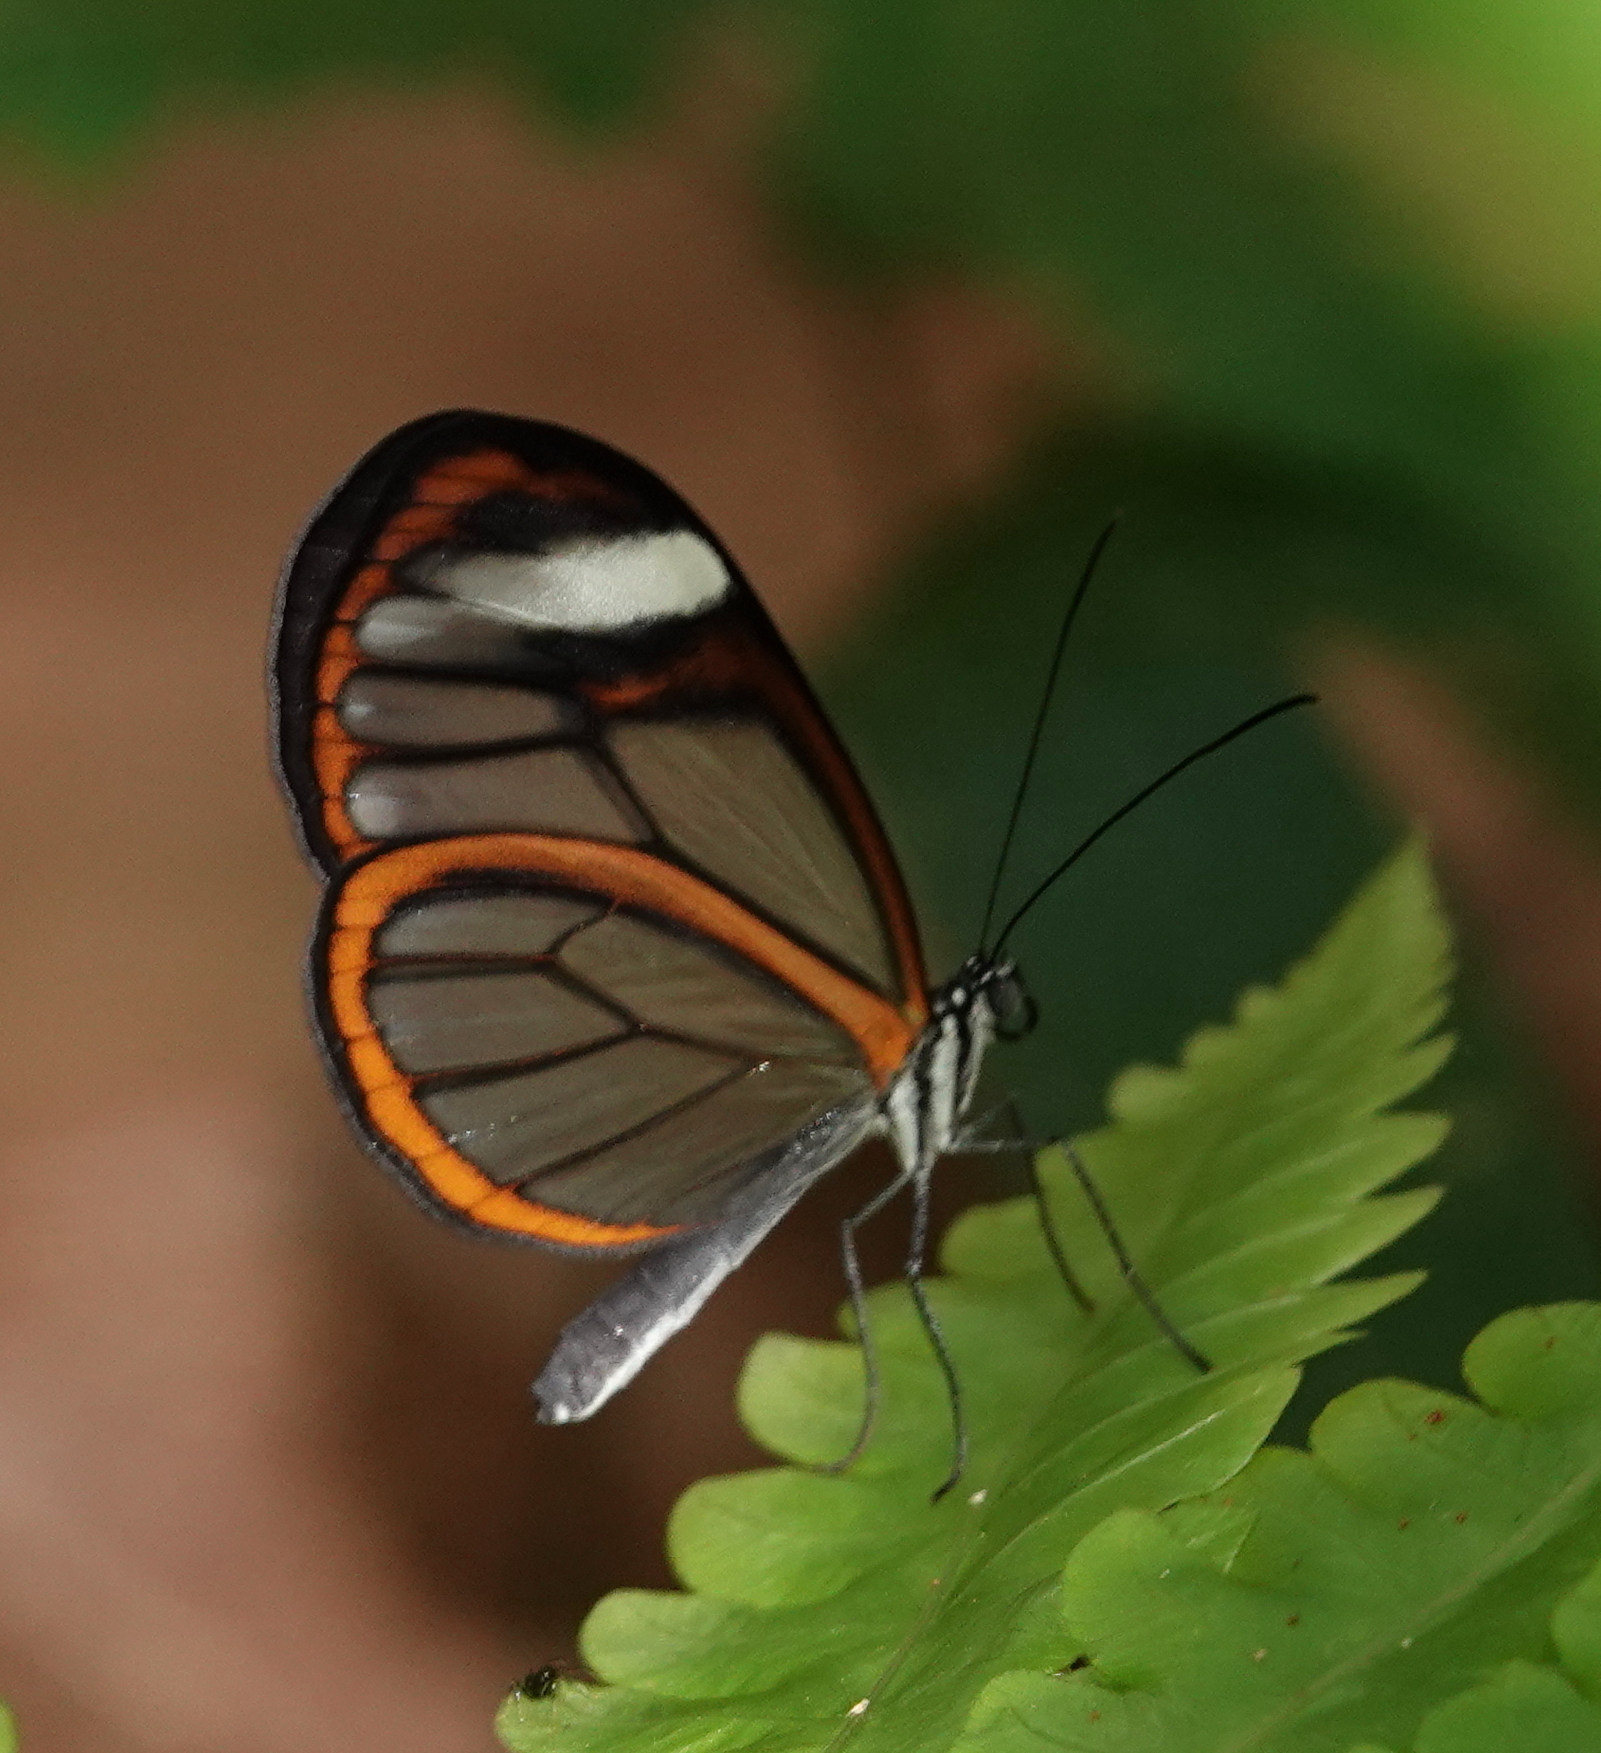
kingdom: Animalia
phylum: Arthropoda
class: Insecta
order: Lepidoptera
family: Nymphalidae
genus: Hypoleria
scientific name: Hypoleria lavinia
